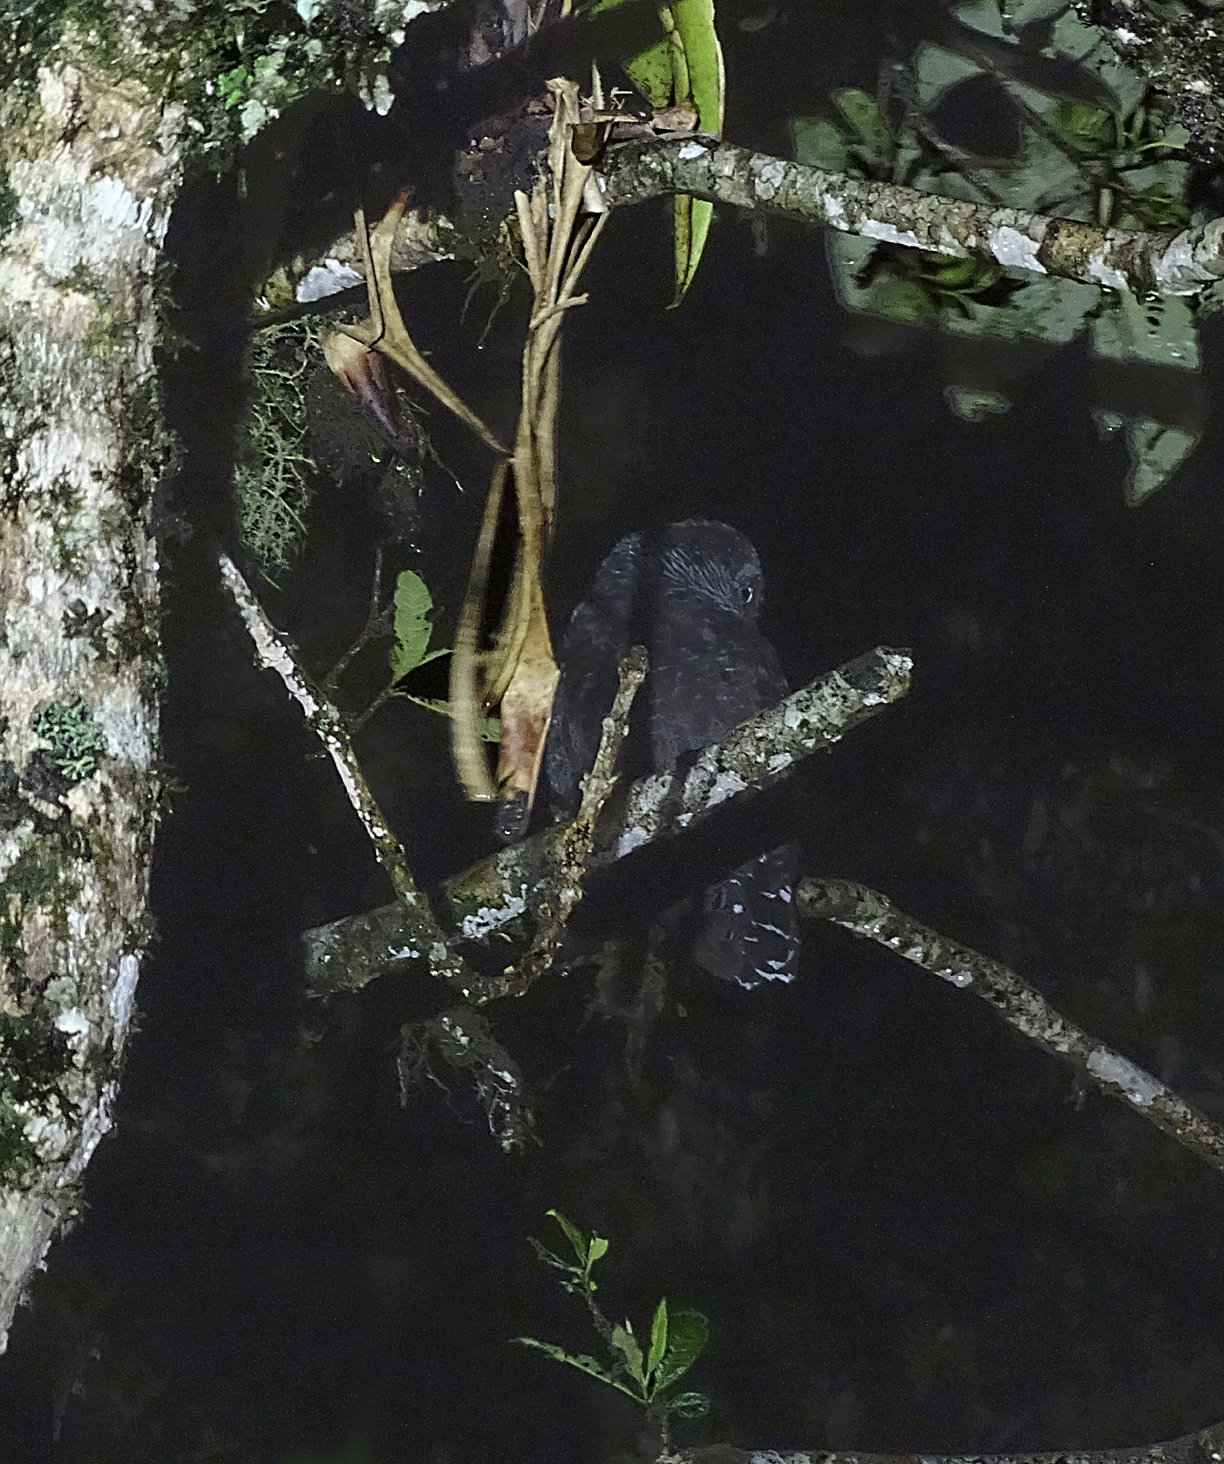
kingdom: Animalia
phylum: Chordata
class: Aves
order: Strigiformes
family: Strigidae
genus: Strix
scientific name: Strix huhula
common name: Black-banded owl
